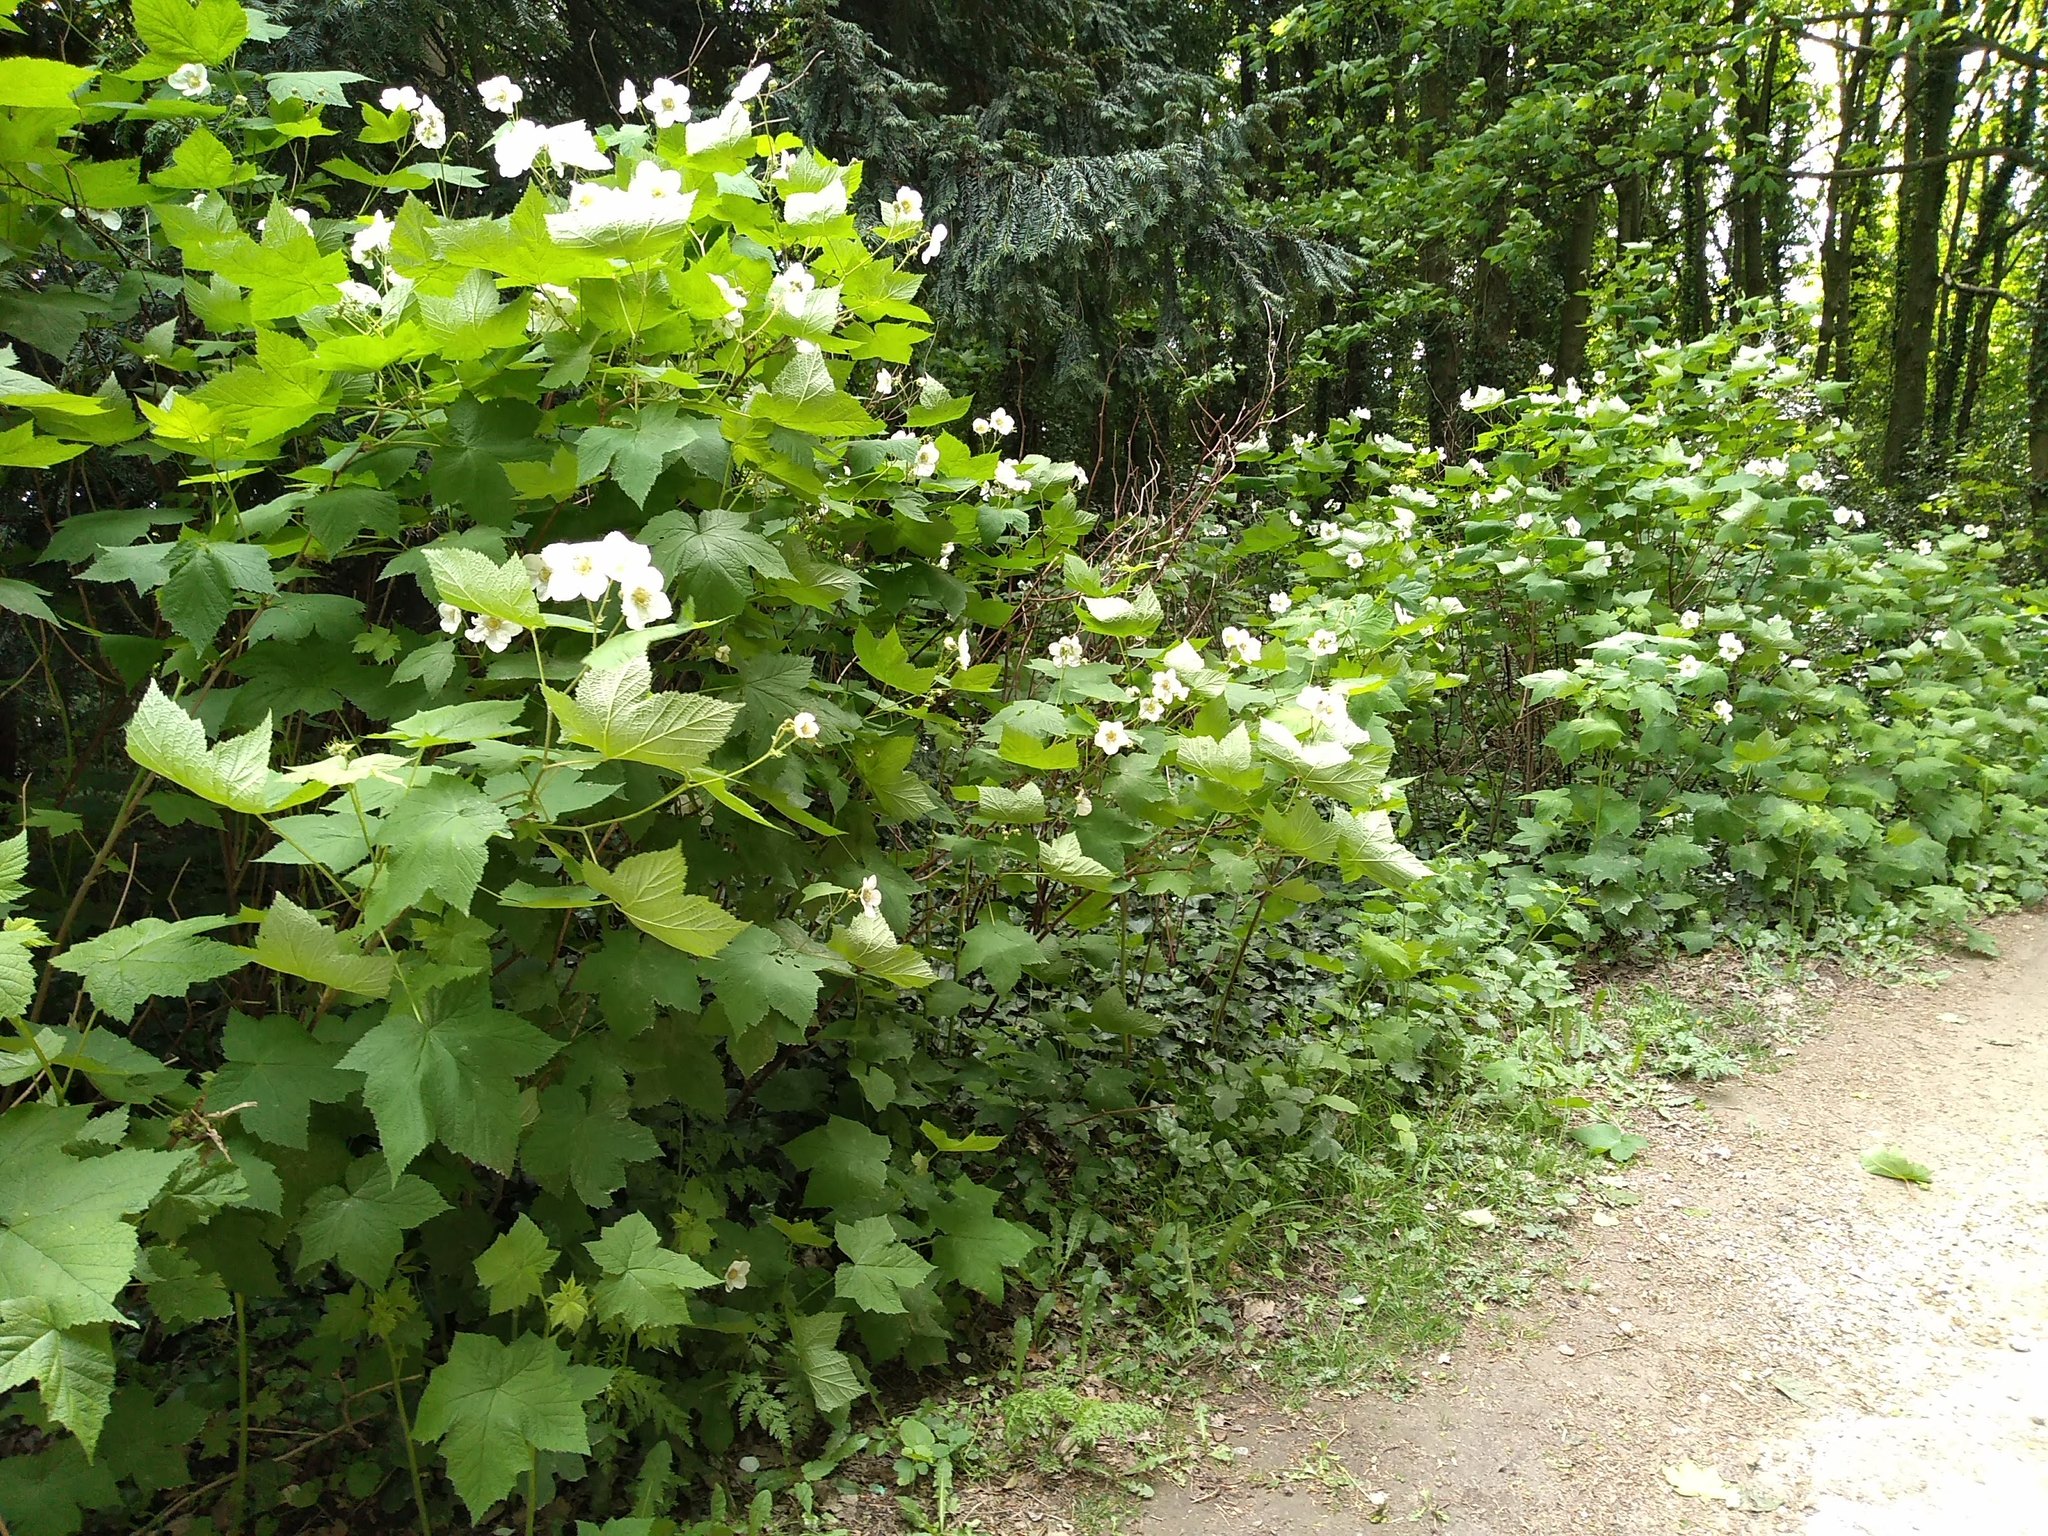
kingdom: Plantae
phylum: Tracheophyta
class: Magnoliopsida
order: Rosales
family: Rosaceae
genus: Rubus
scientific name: Rubus parviflorus
